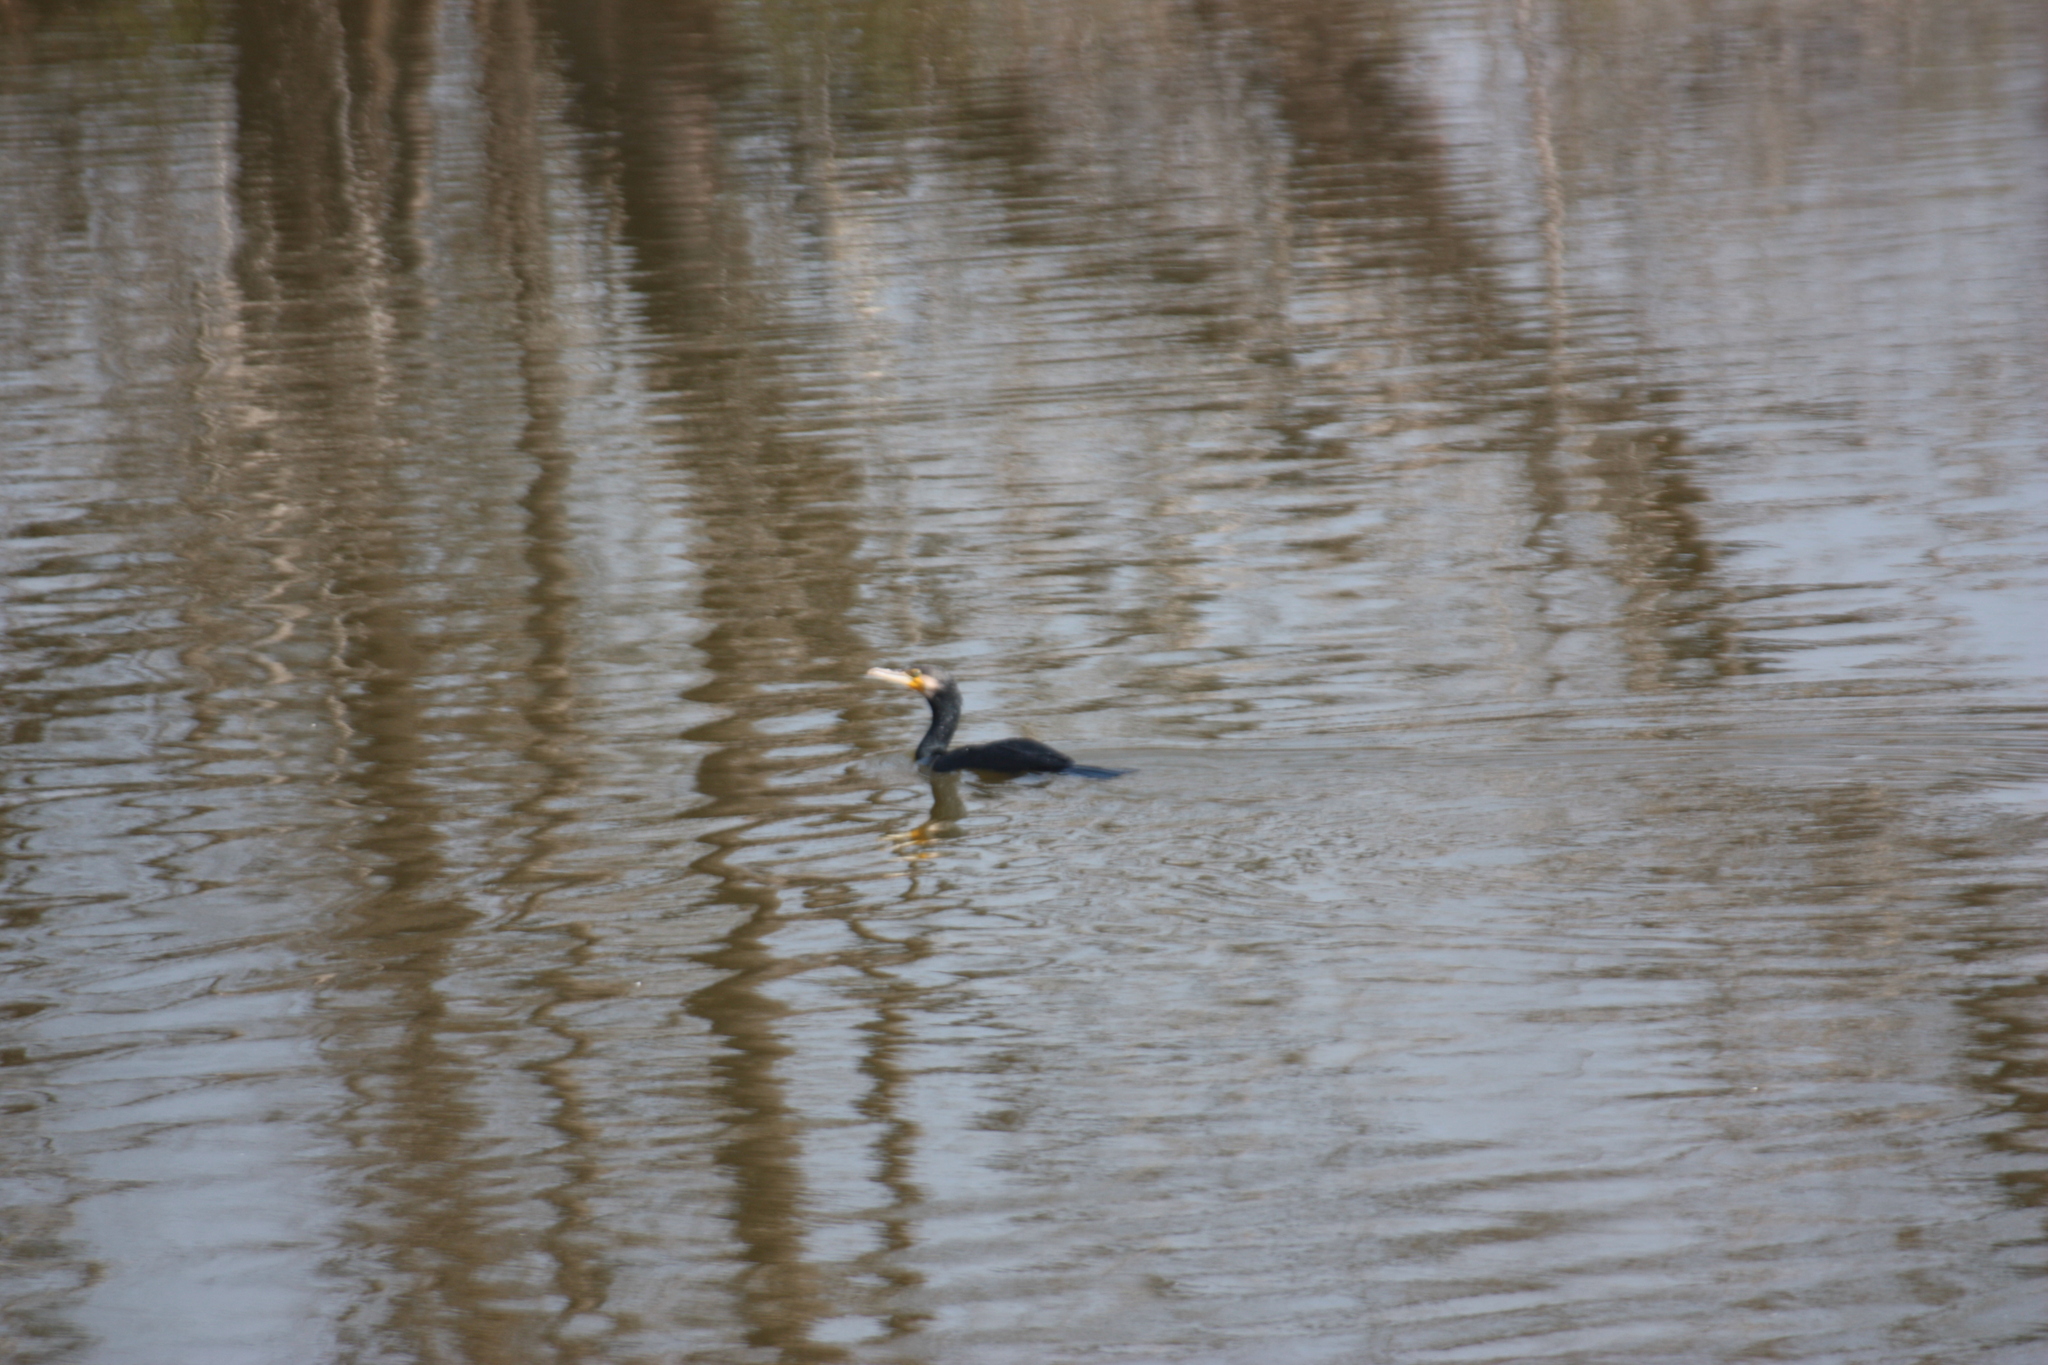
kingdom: Animalia
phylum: Chordata
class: Aves
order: Suliformes
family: Phalacrocoracidae
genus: Phalacrocorax
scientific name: Phalacrocorax carbo
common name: Great cormorant
